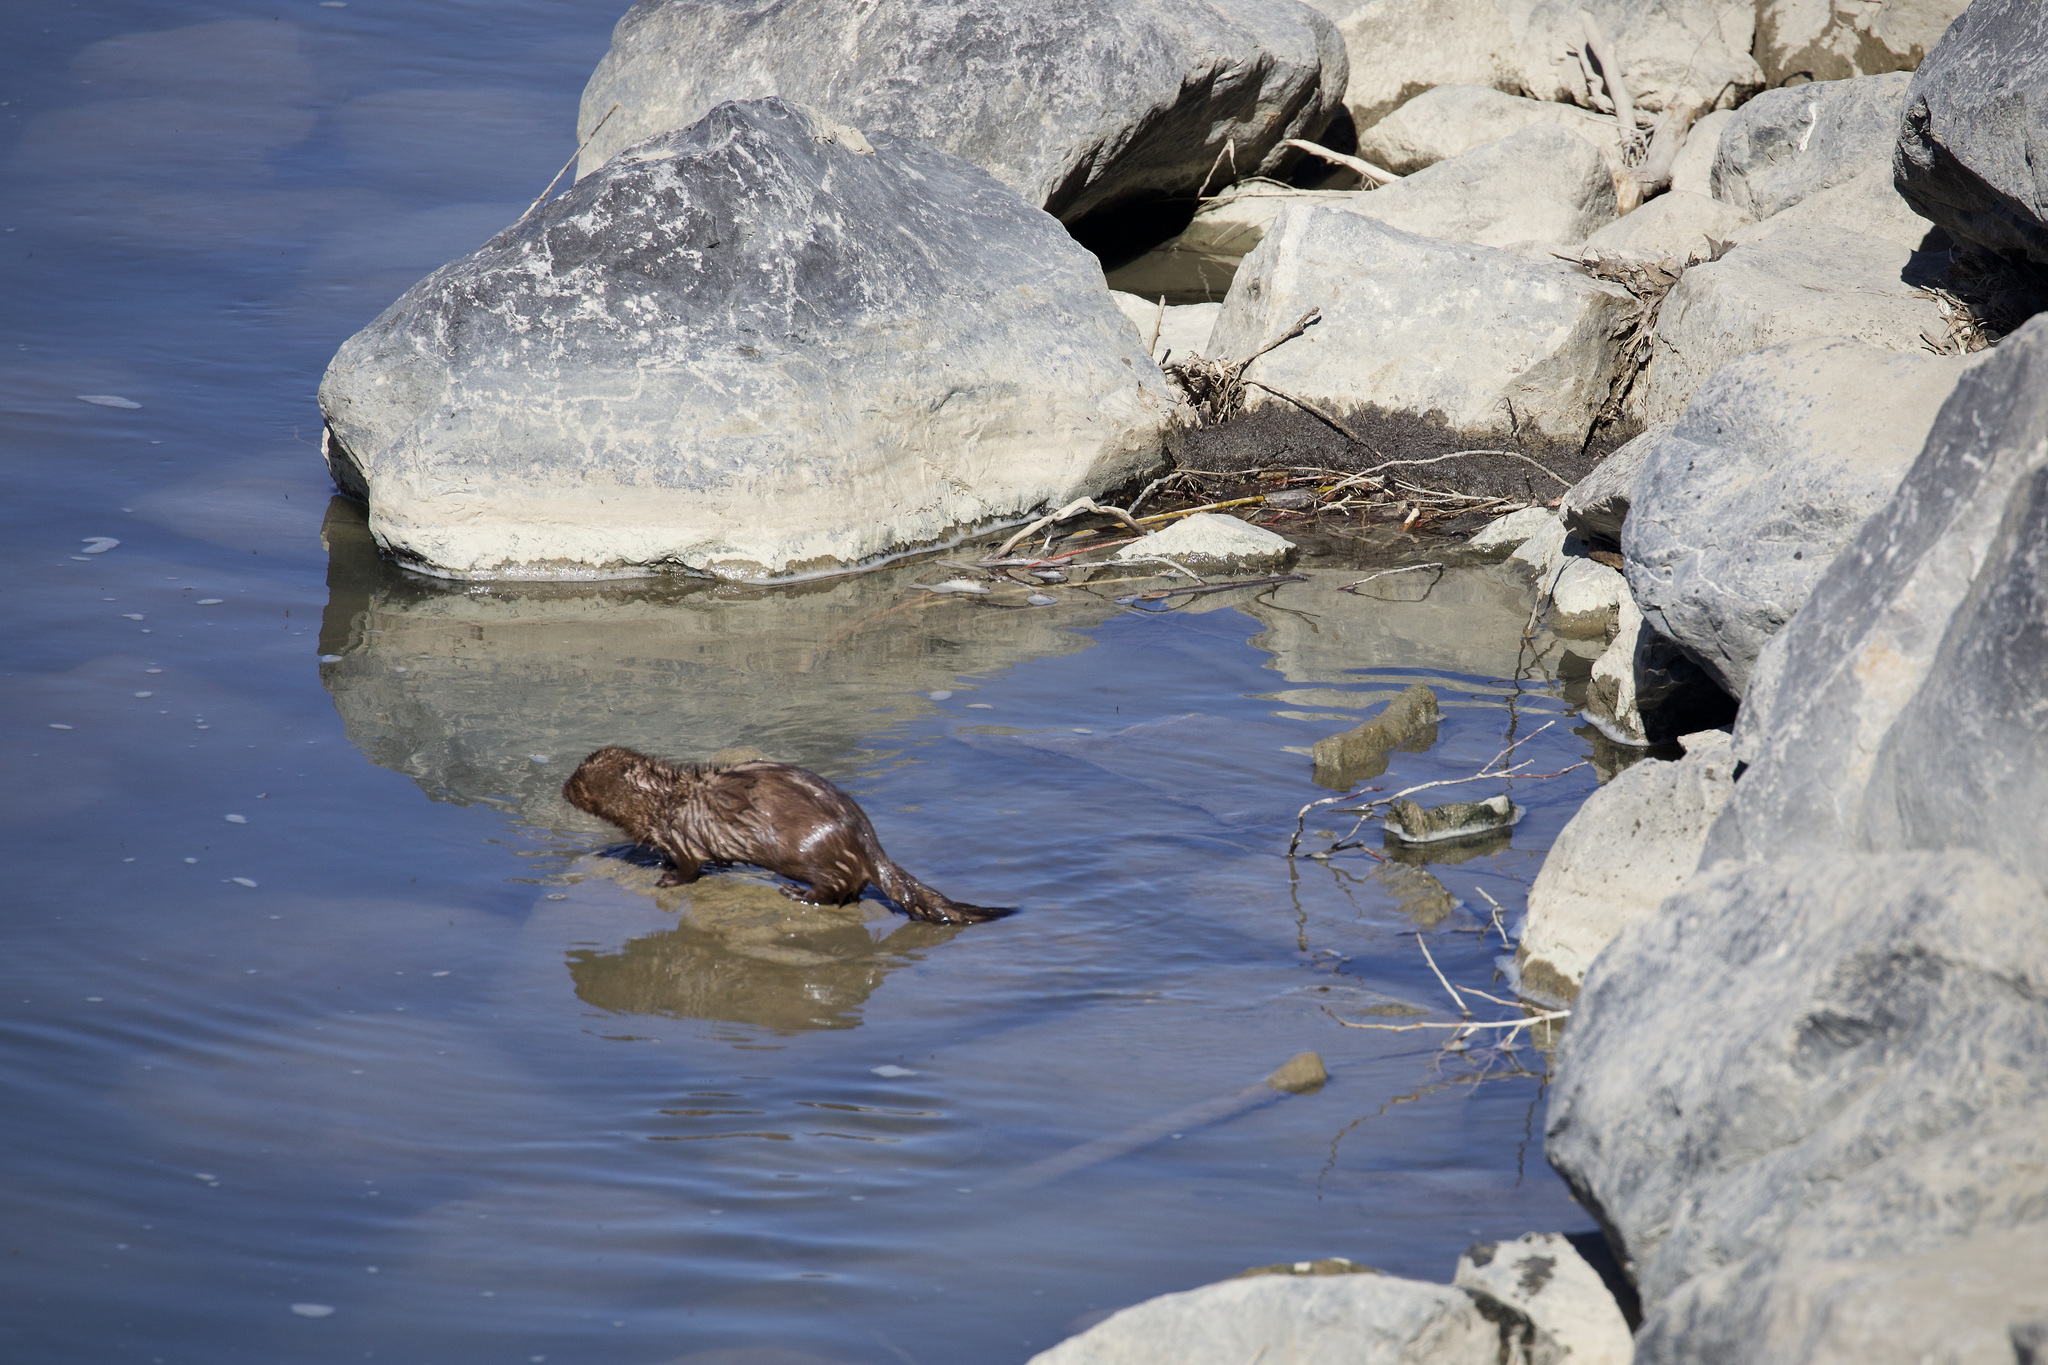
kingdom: Animalia
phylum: Chordata
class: Mammalia
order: Carnivora
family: Mustelidae
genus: Mustela
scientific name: Mustela
